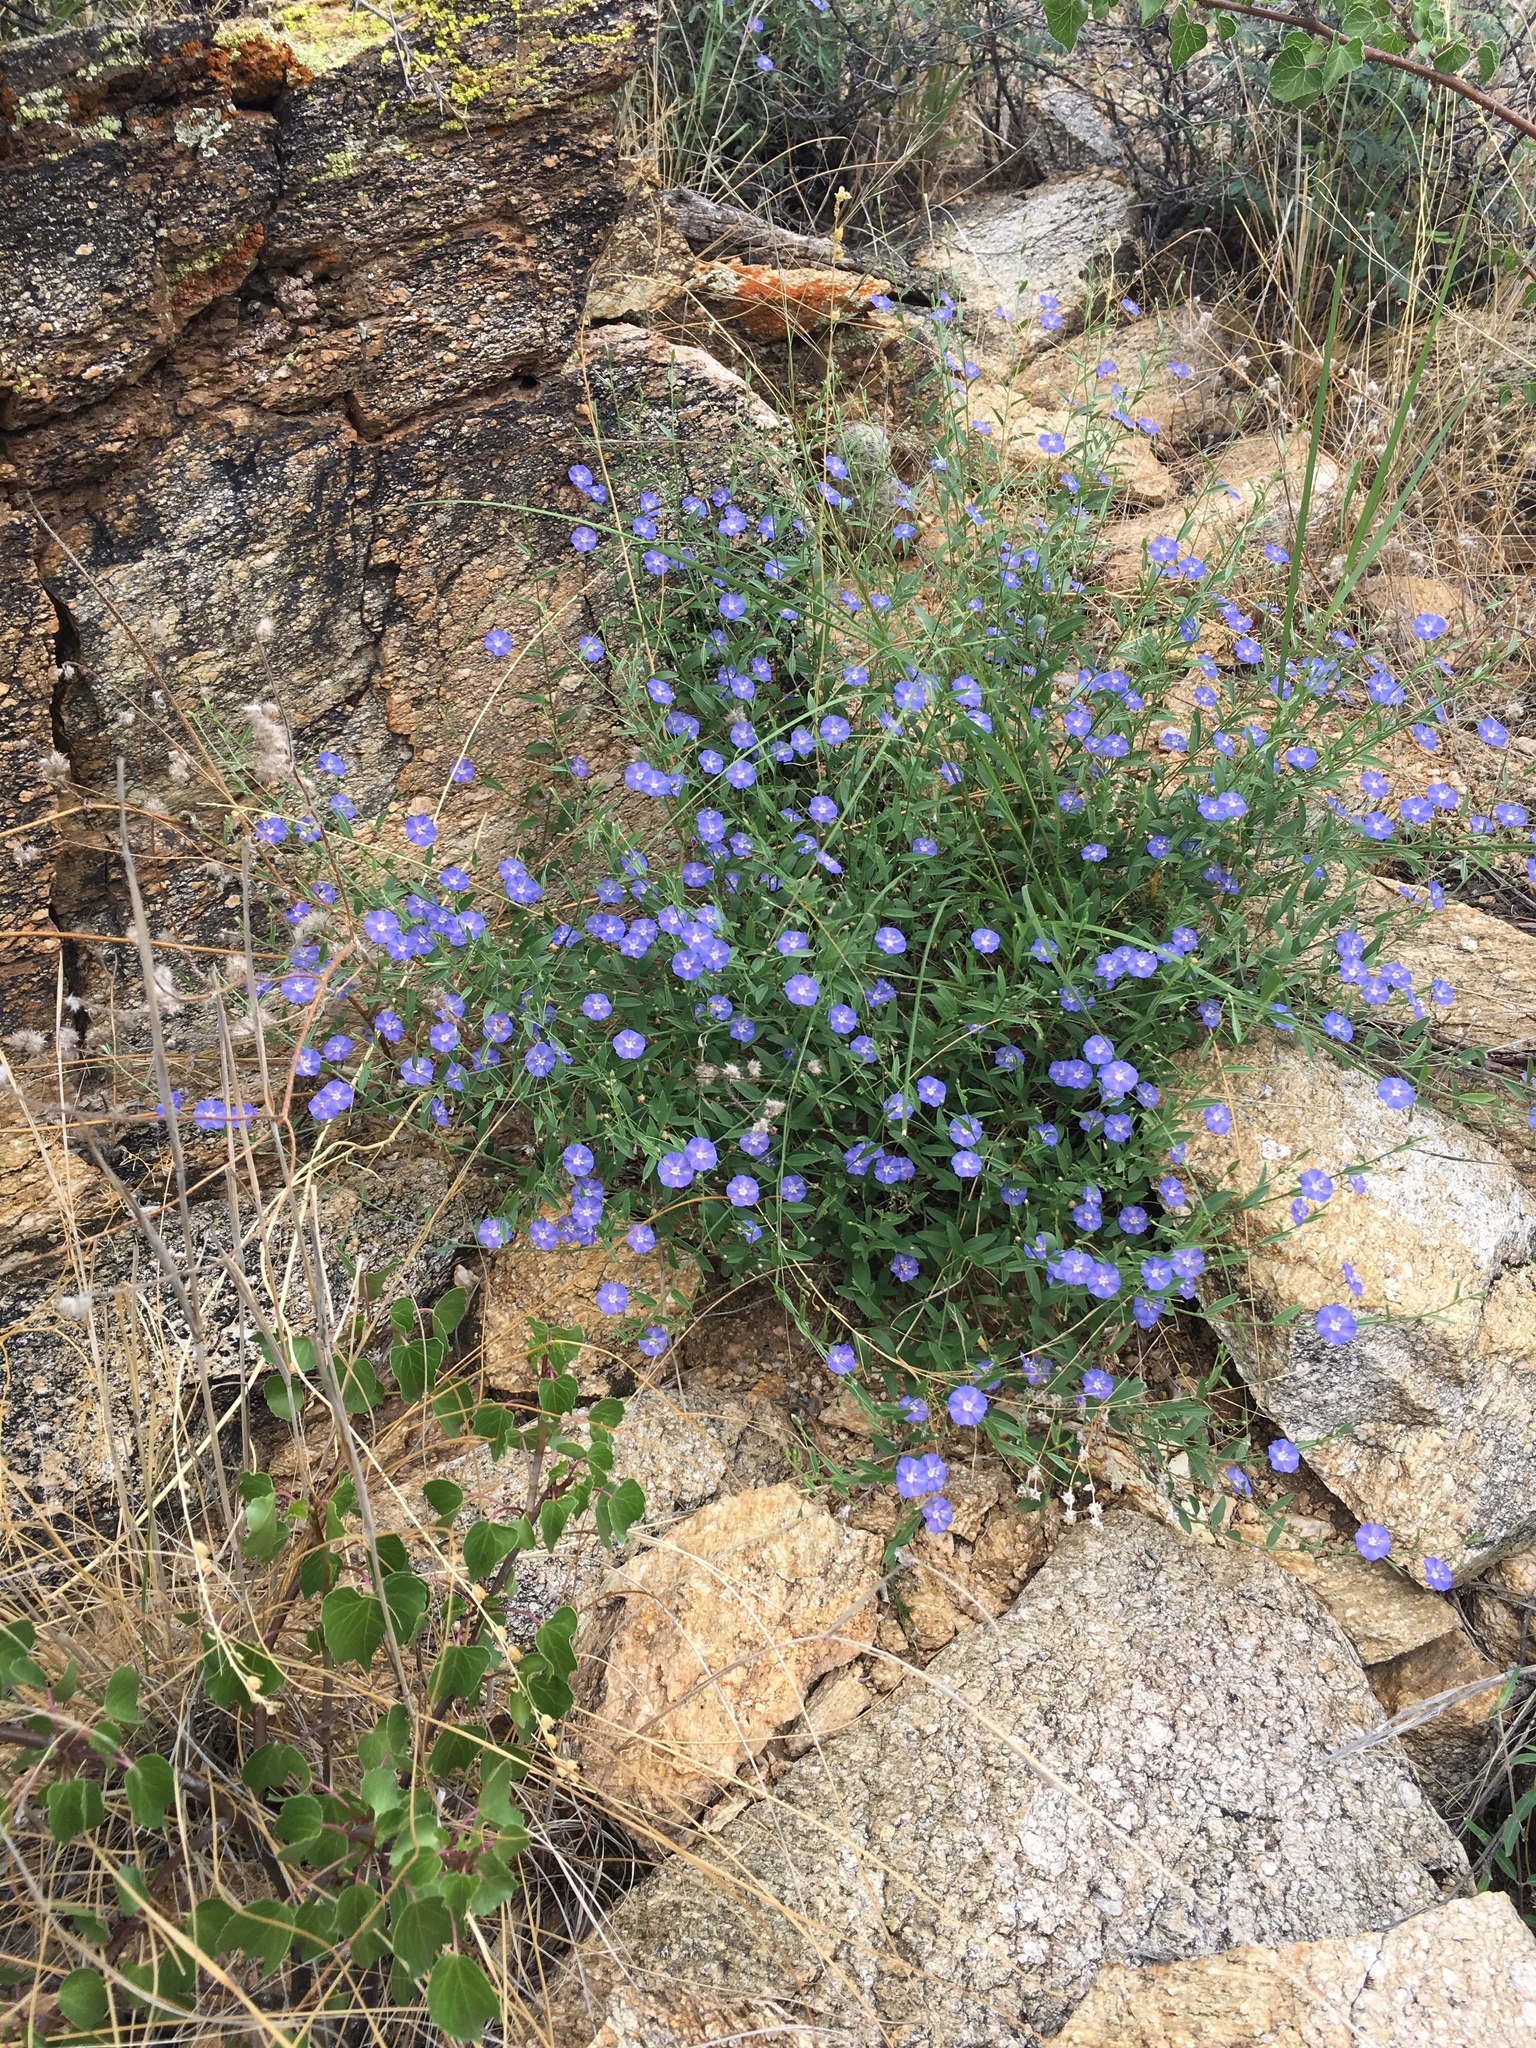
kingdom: Plantae
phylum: Tracheophyta
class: Magnoliopsida
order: Solanales
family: Convolvulaceae
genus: Evolvulus
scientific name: Evolvulus arizonicus
